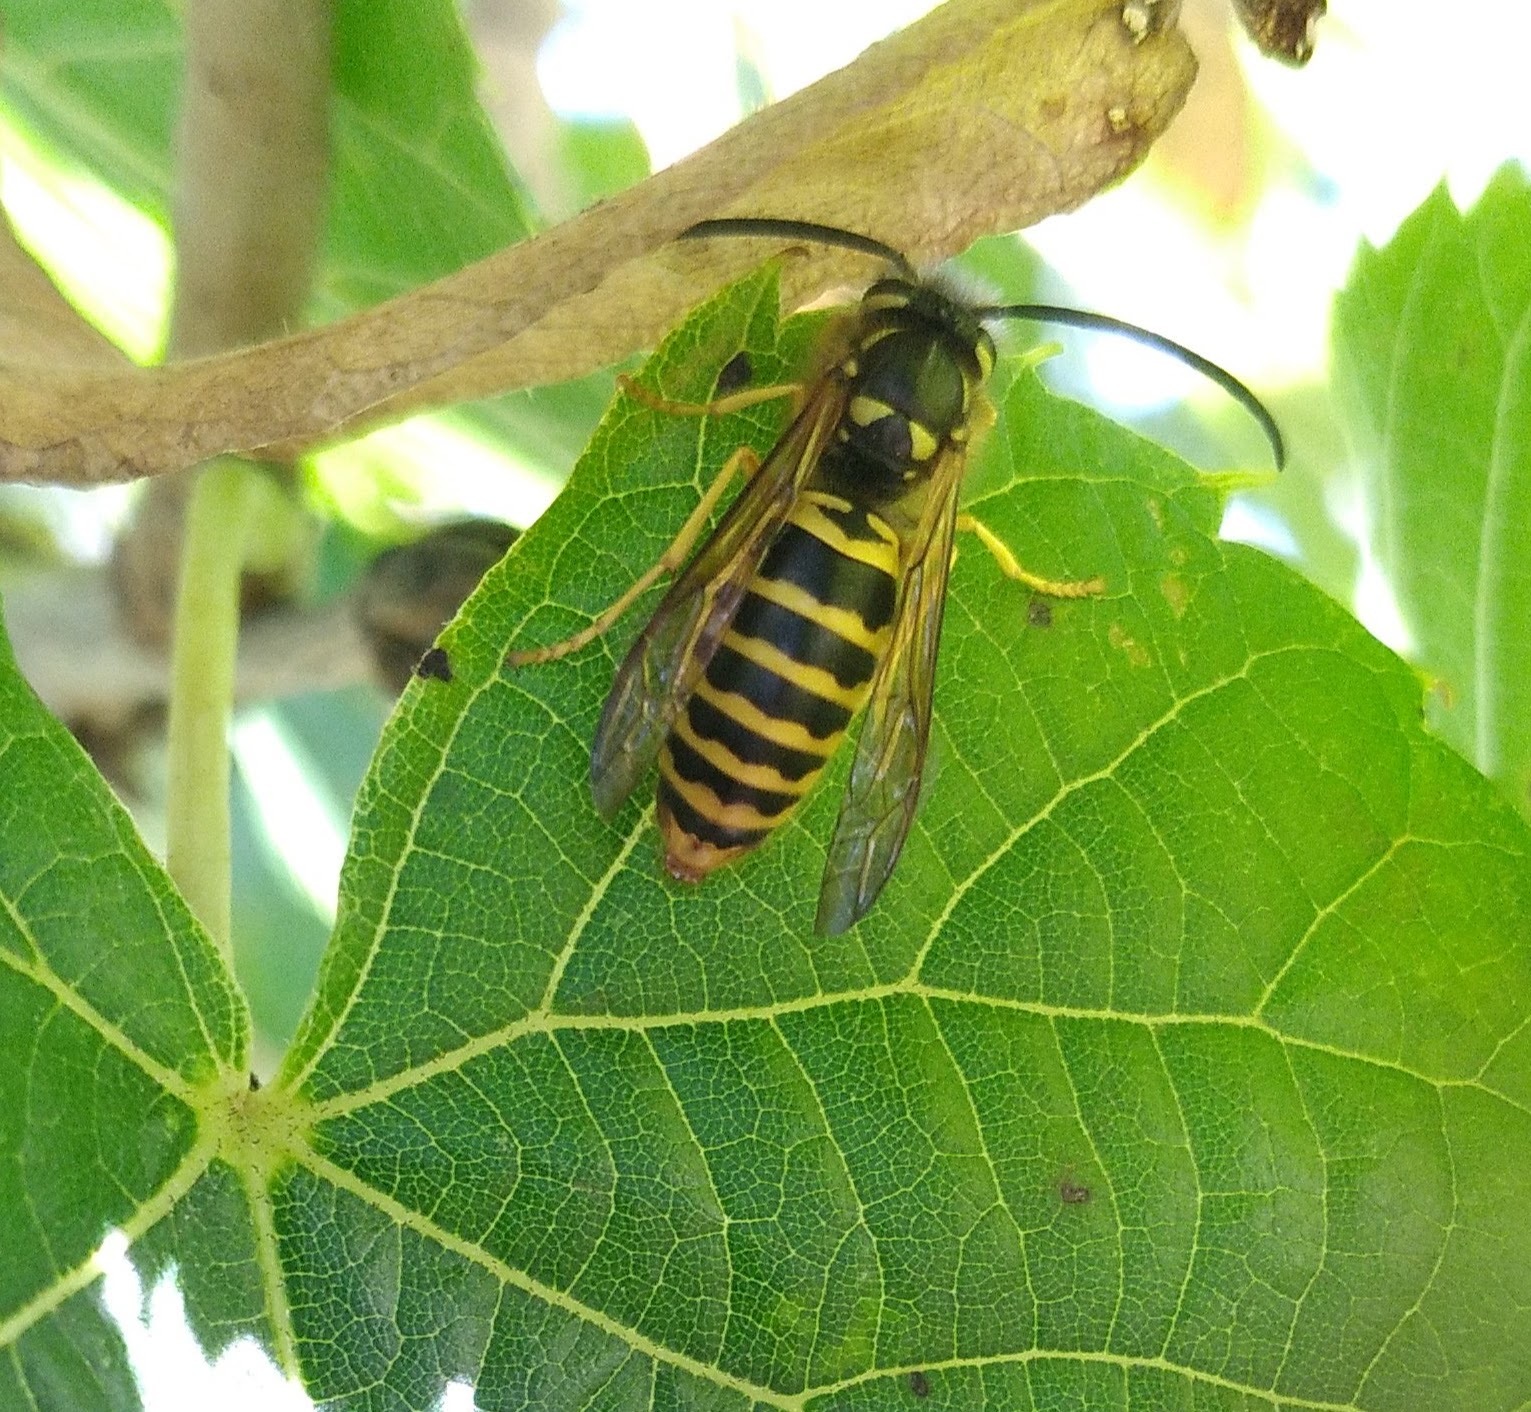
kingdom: Animalia
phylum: Arthropoda
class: Insecta
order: Hymenoptera
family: Vespidae
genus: Vespula
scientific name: Vespula maculifrons
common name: Eastern yellowjacket
